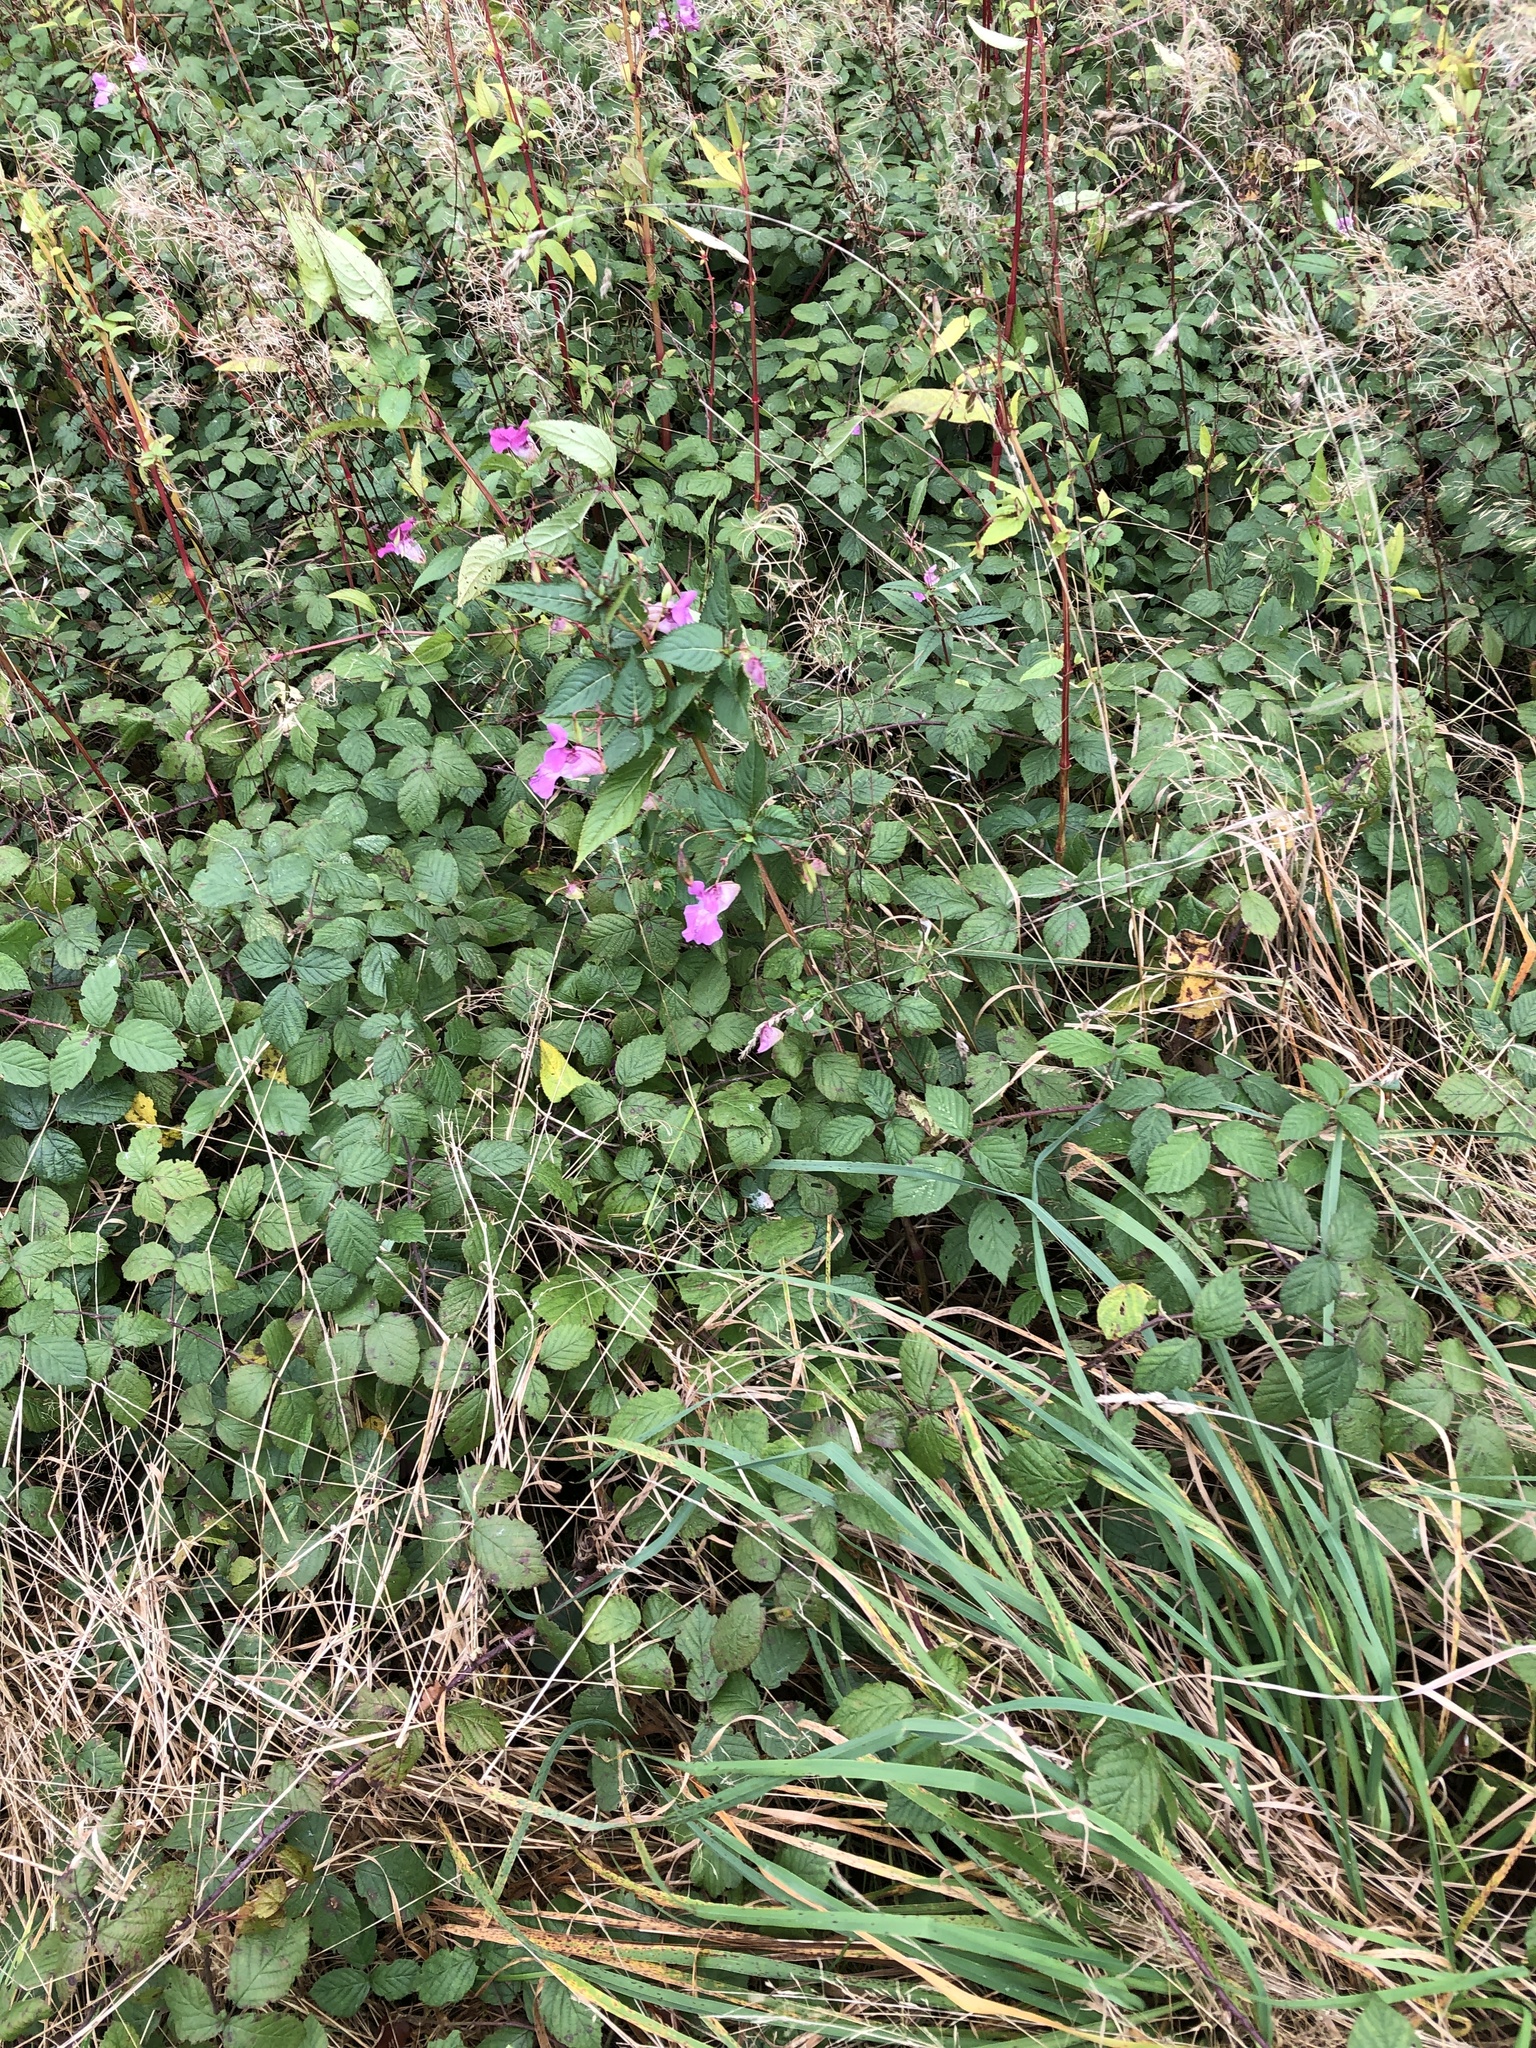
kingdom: Plantae
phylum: Tracheophyta
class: Magnoliopsida
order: Ericales
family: Balsaminaceae
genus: Impatiens
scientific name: Impatiens glandulifera
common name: Himalayan balsam
